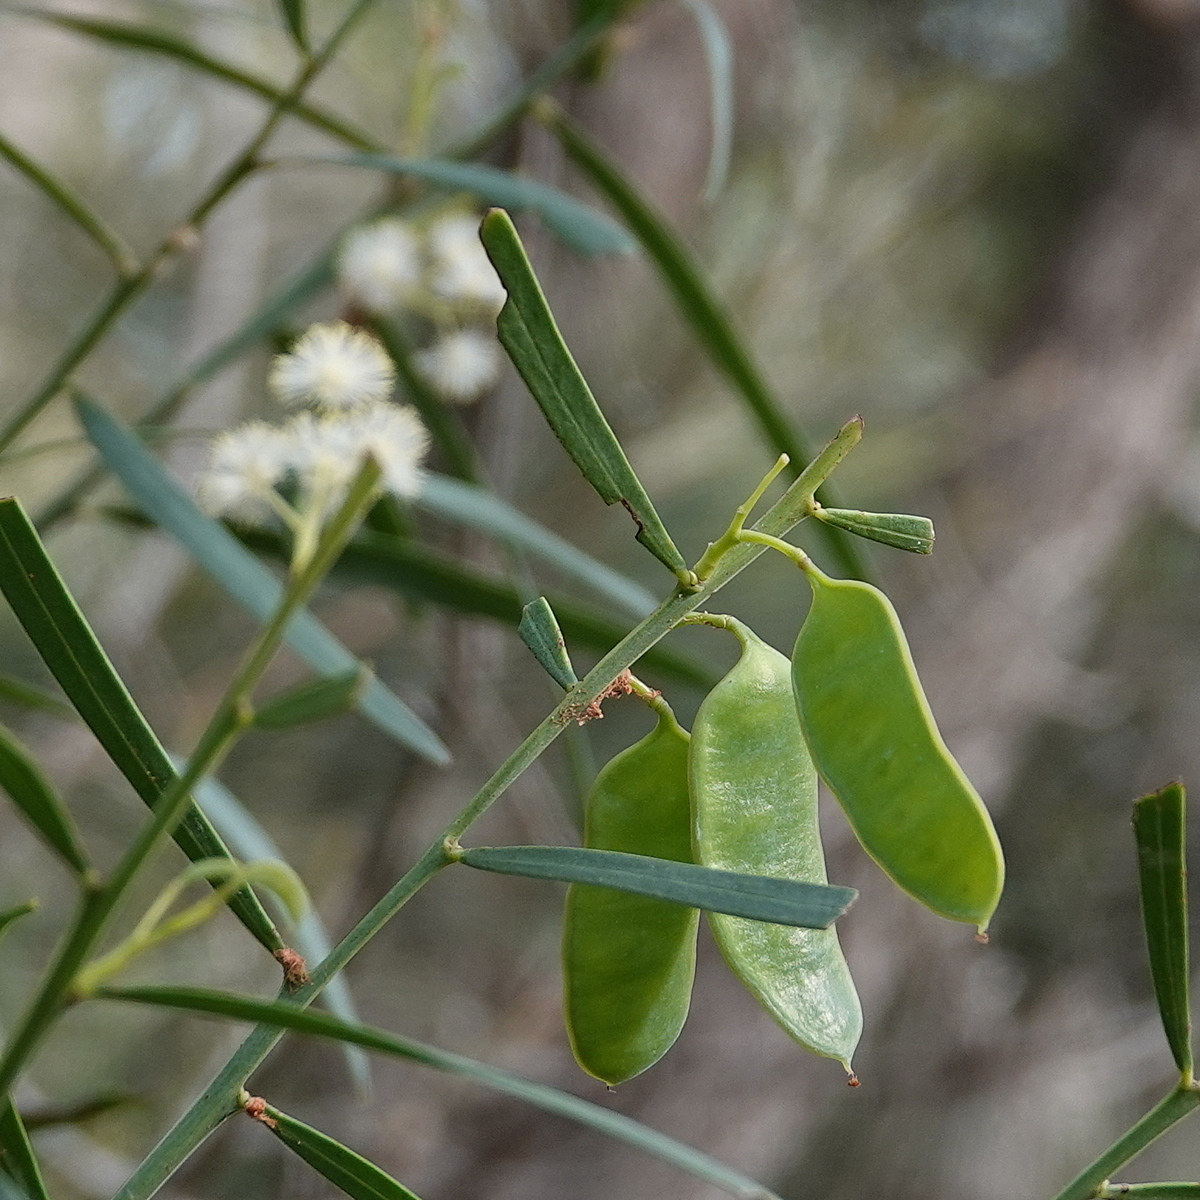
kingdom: Plantae
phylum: Tracheophyta
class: Magnoliopsida
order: Fabales
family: Fabaceae
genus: Acacia
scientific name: Acacia suaveolens
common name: Sweet acacia
